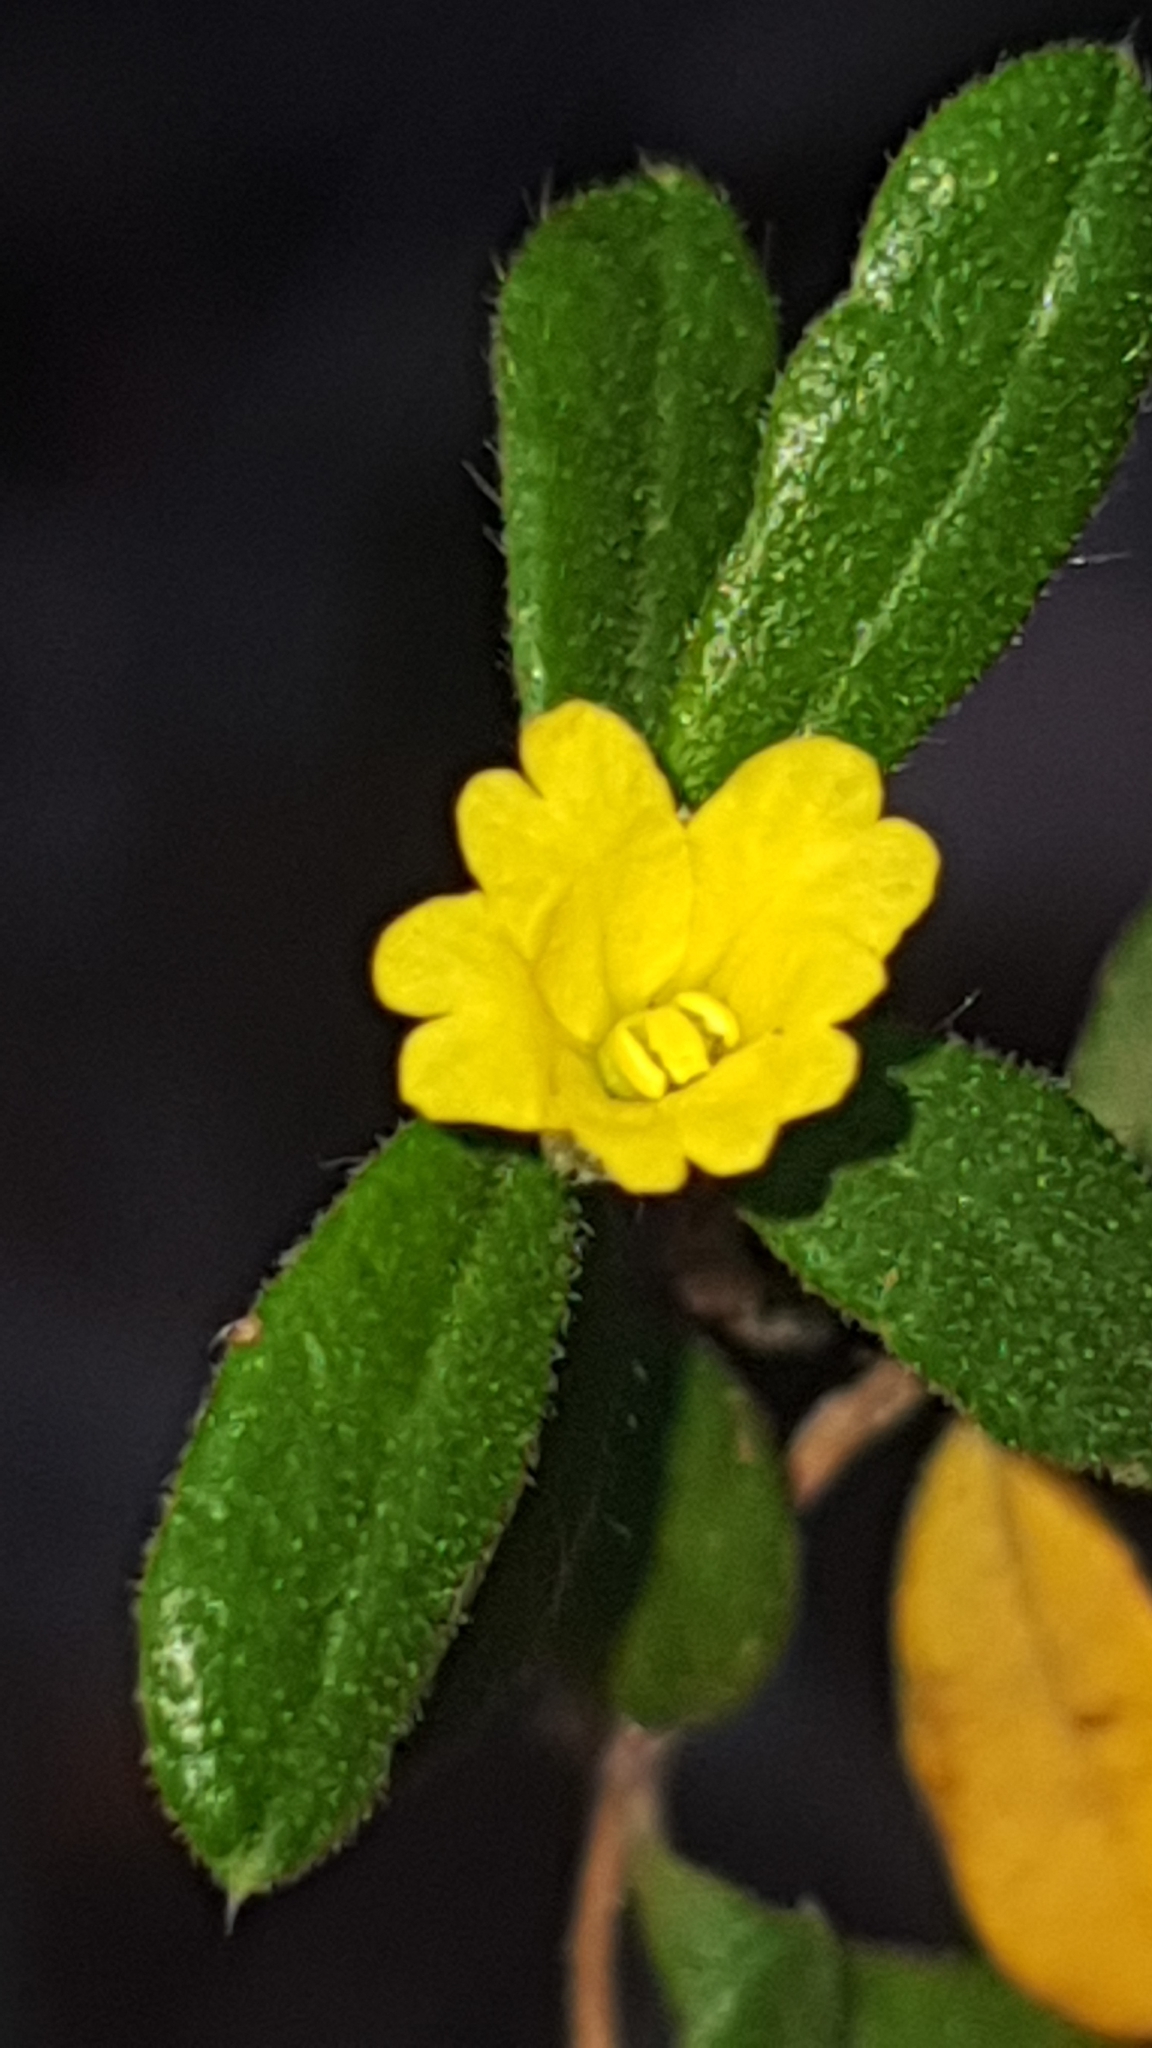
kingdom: Plantae
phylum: Tracheophyta
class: Magnoliopsida
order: Dilleniales
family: Dilleniaceae
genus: Hibbertia
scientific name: Hibbertia aspera
